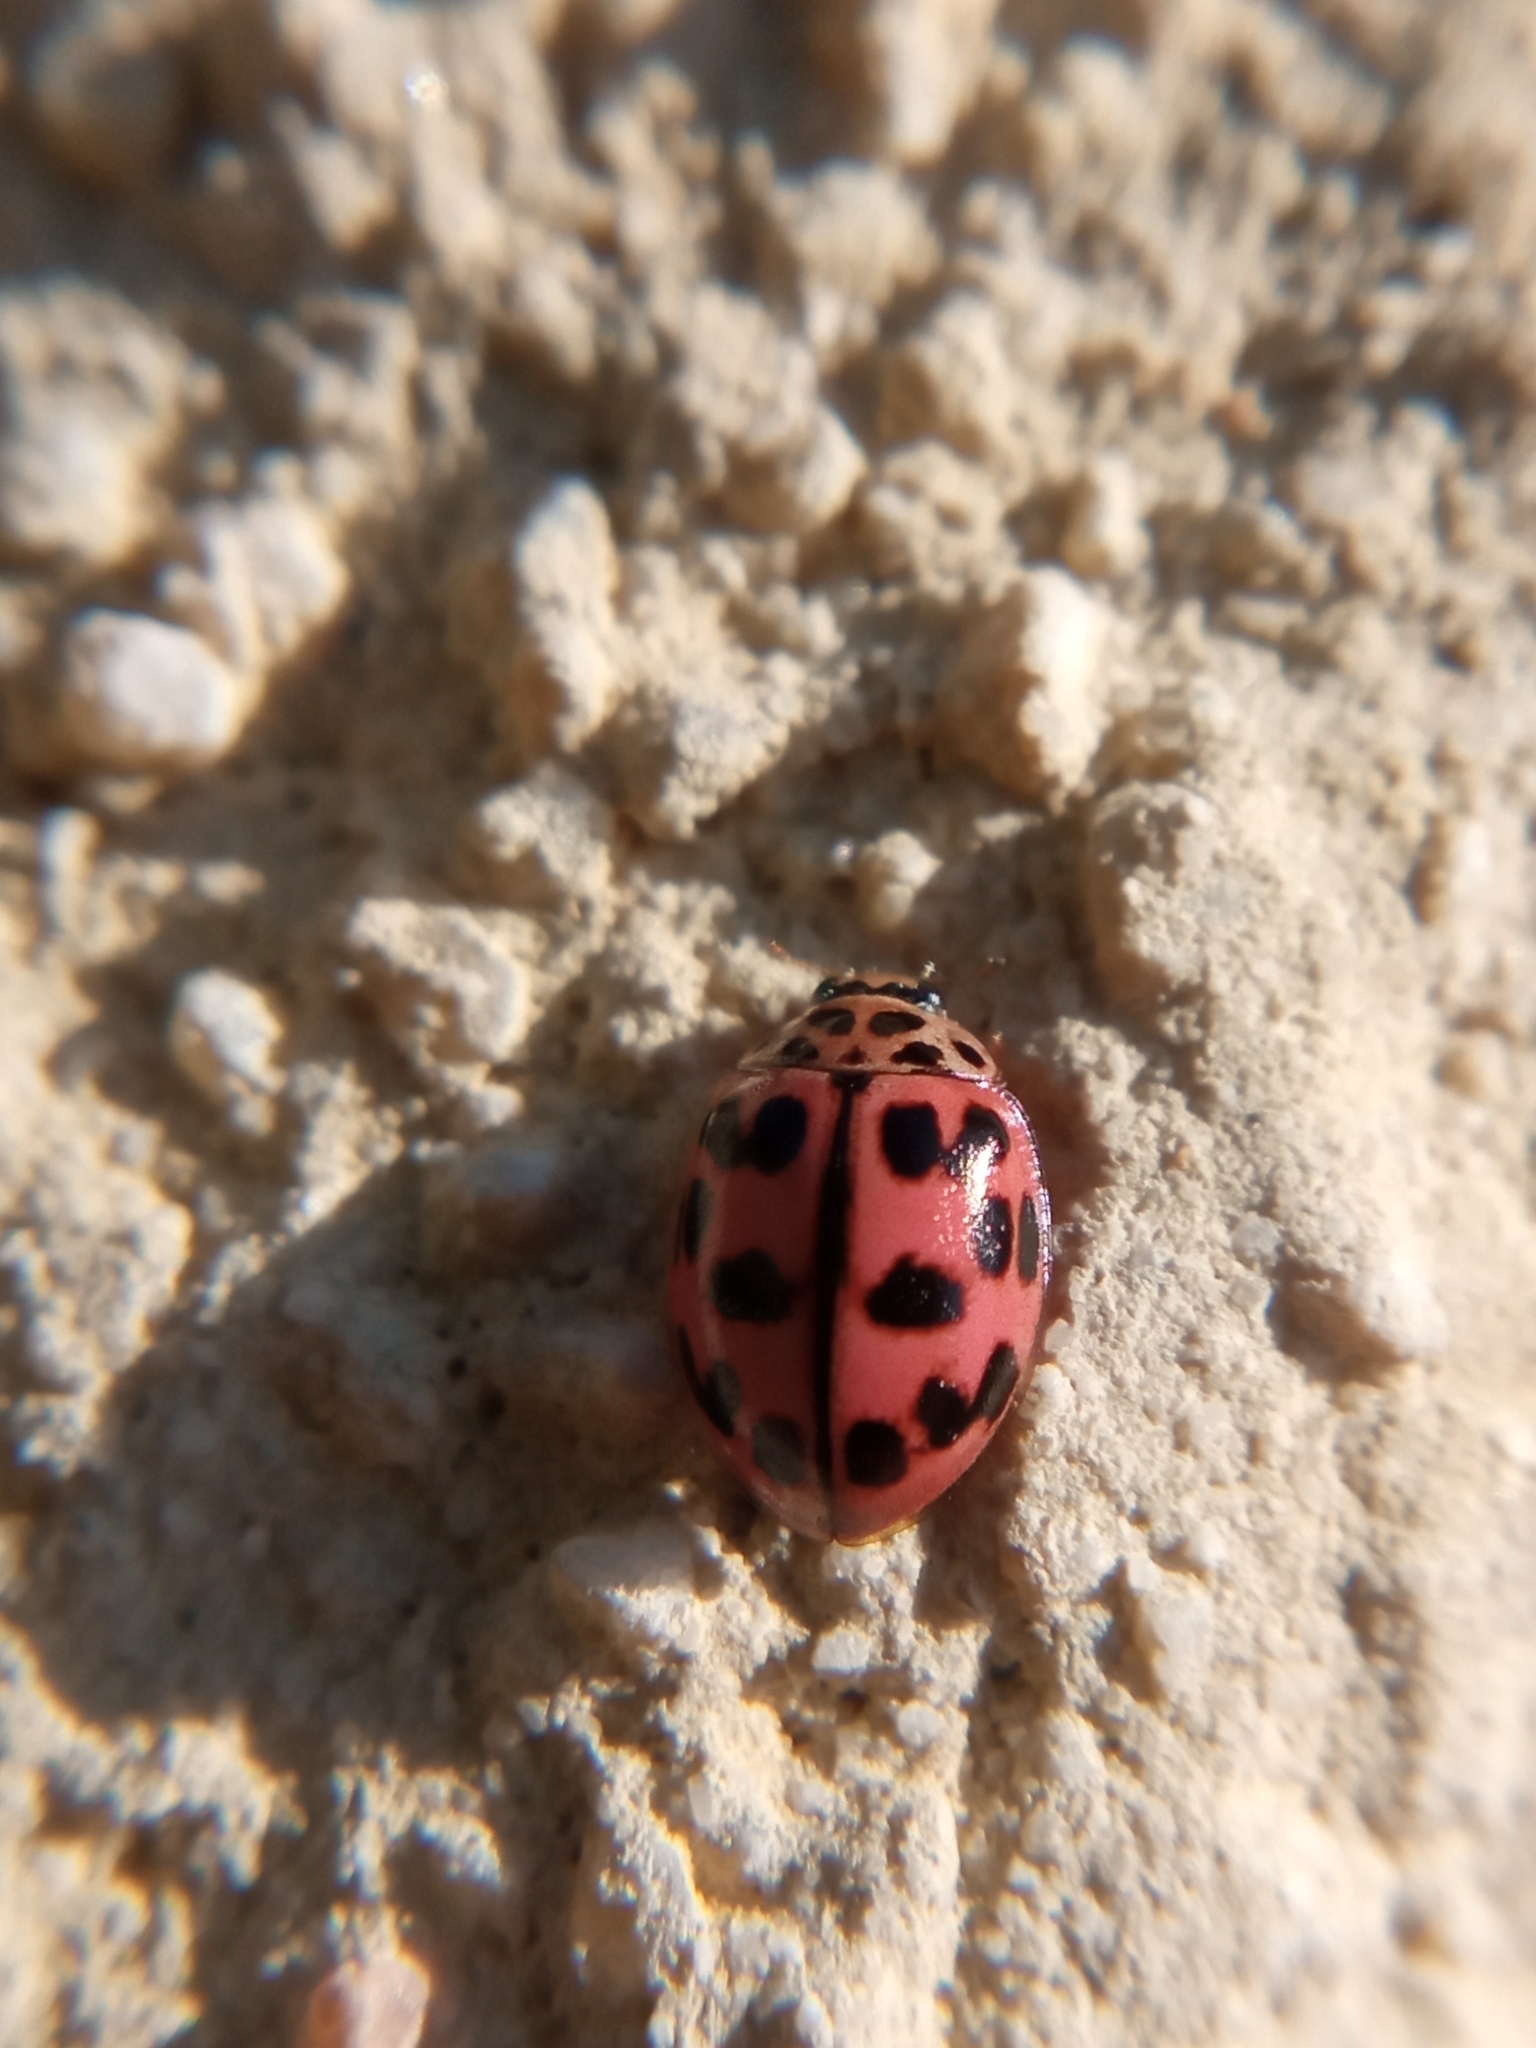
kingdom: Animalia
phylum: Arthropoda
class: Insecta
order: Coleoptera
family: Coccinellidae
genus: Oenopia
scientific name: Oenopia conglobata
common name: Ladybird beetle
